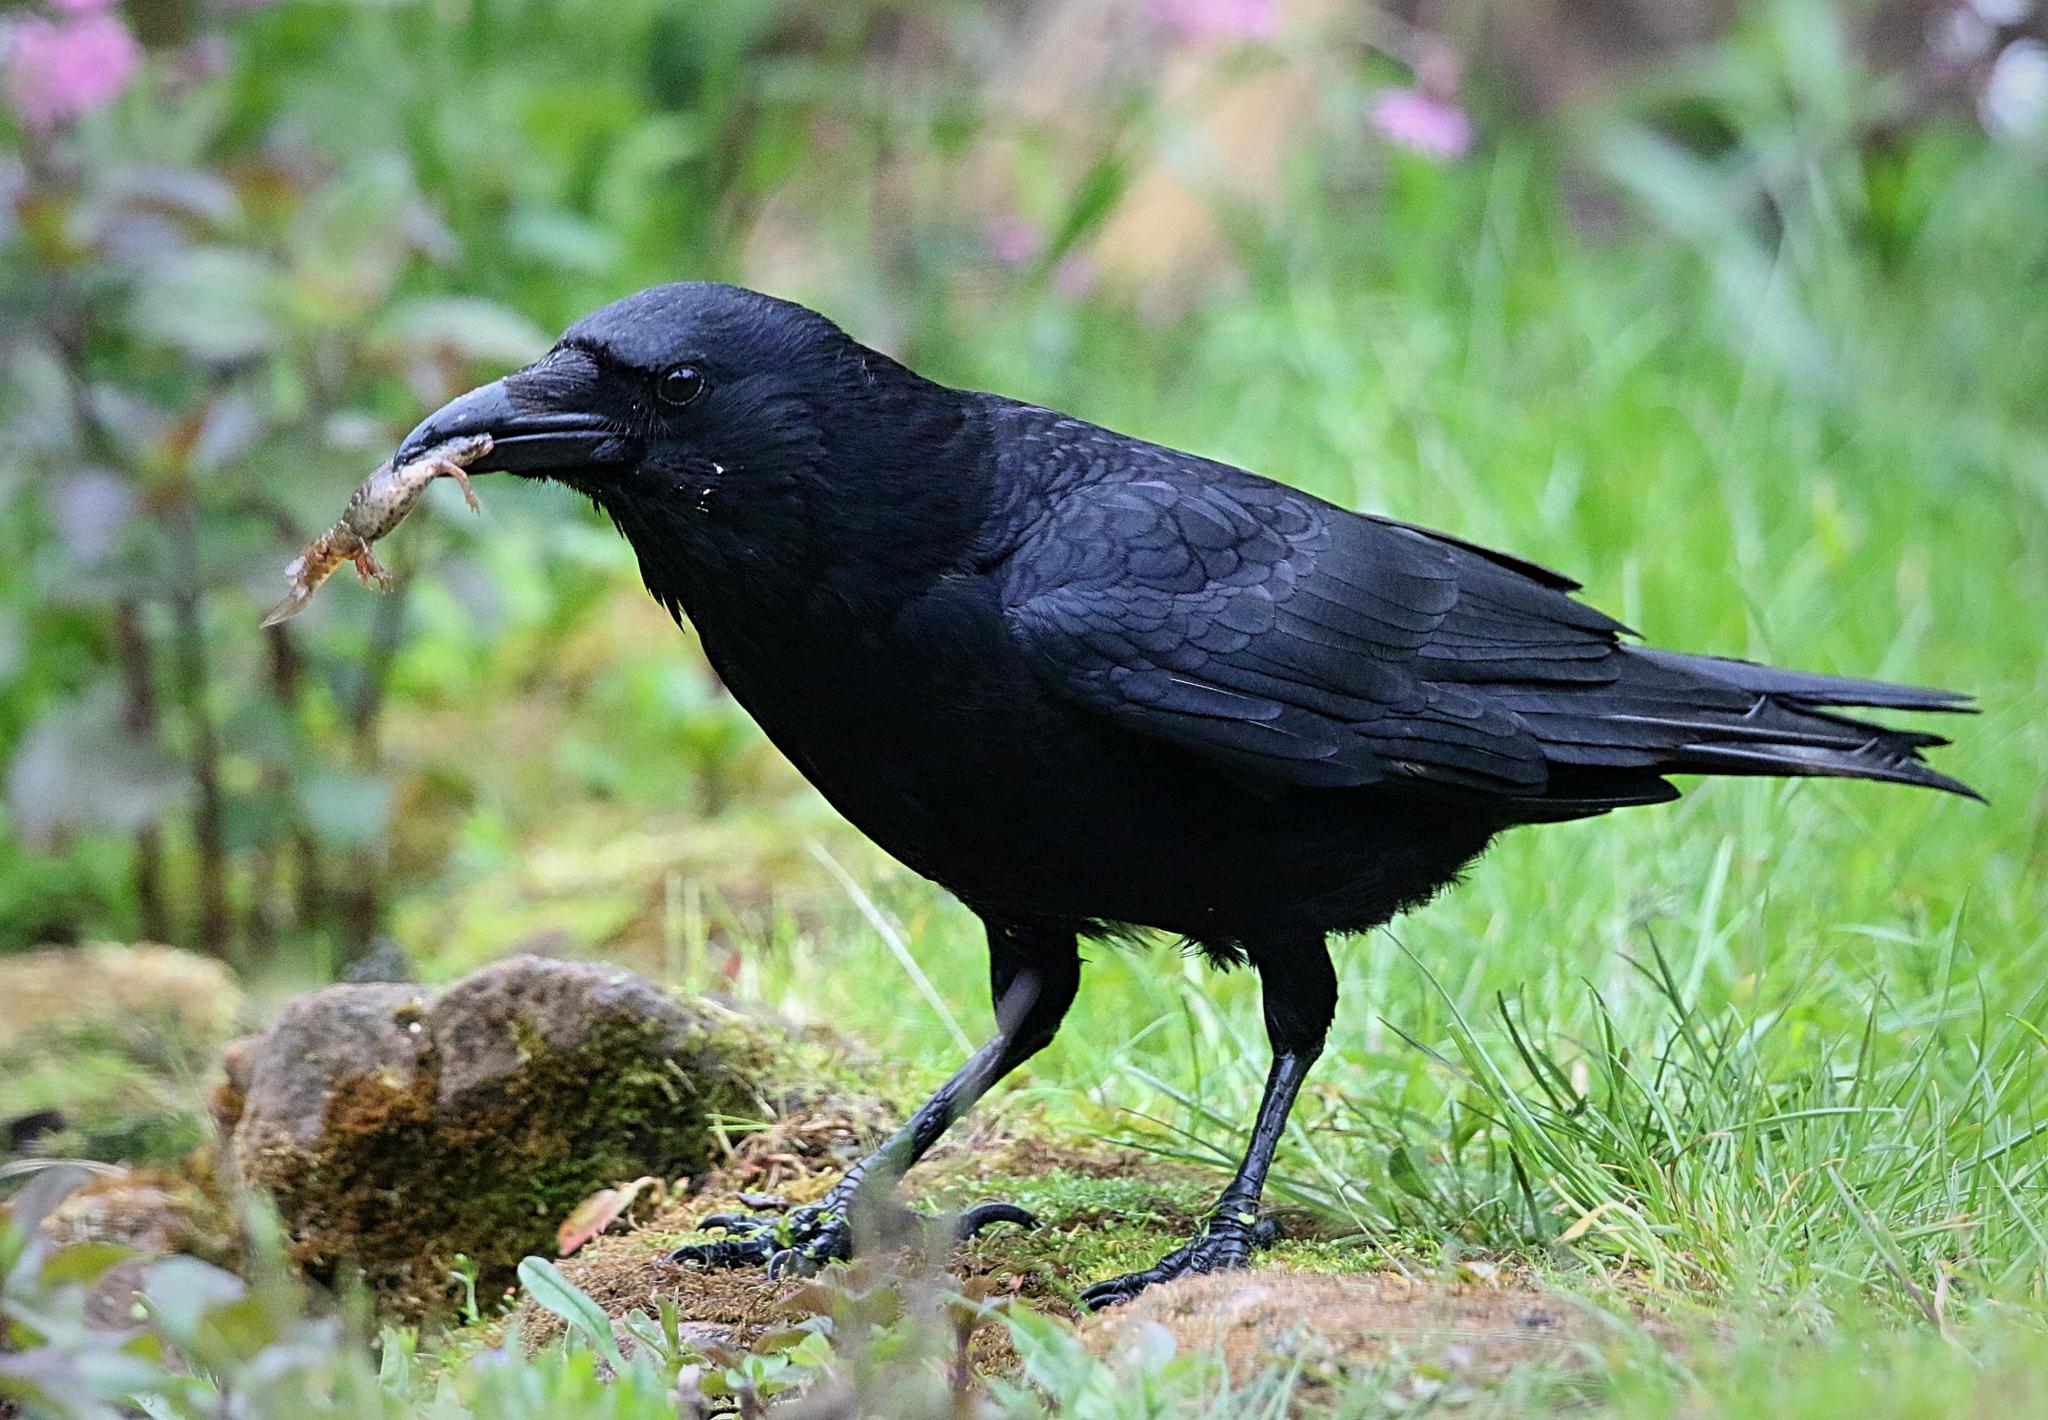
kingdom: Animalia
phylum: Chordata
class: Aves
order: Passeriformes
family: Corvidae
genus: Corvus
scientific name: Corvus corone
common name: Carrion crow
